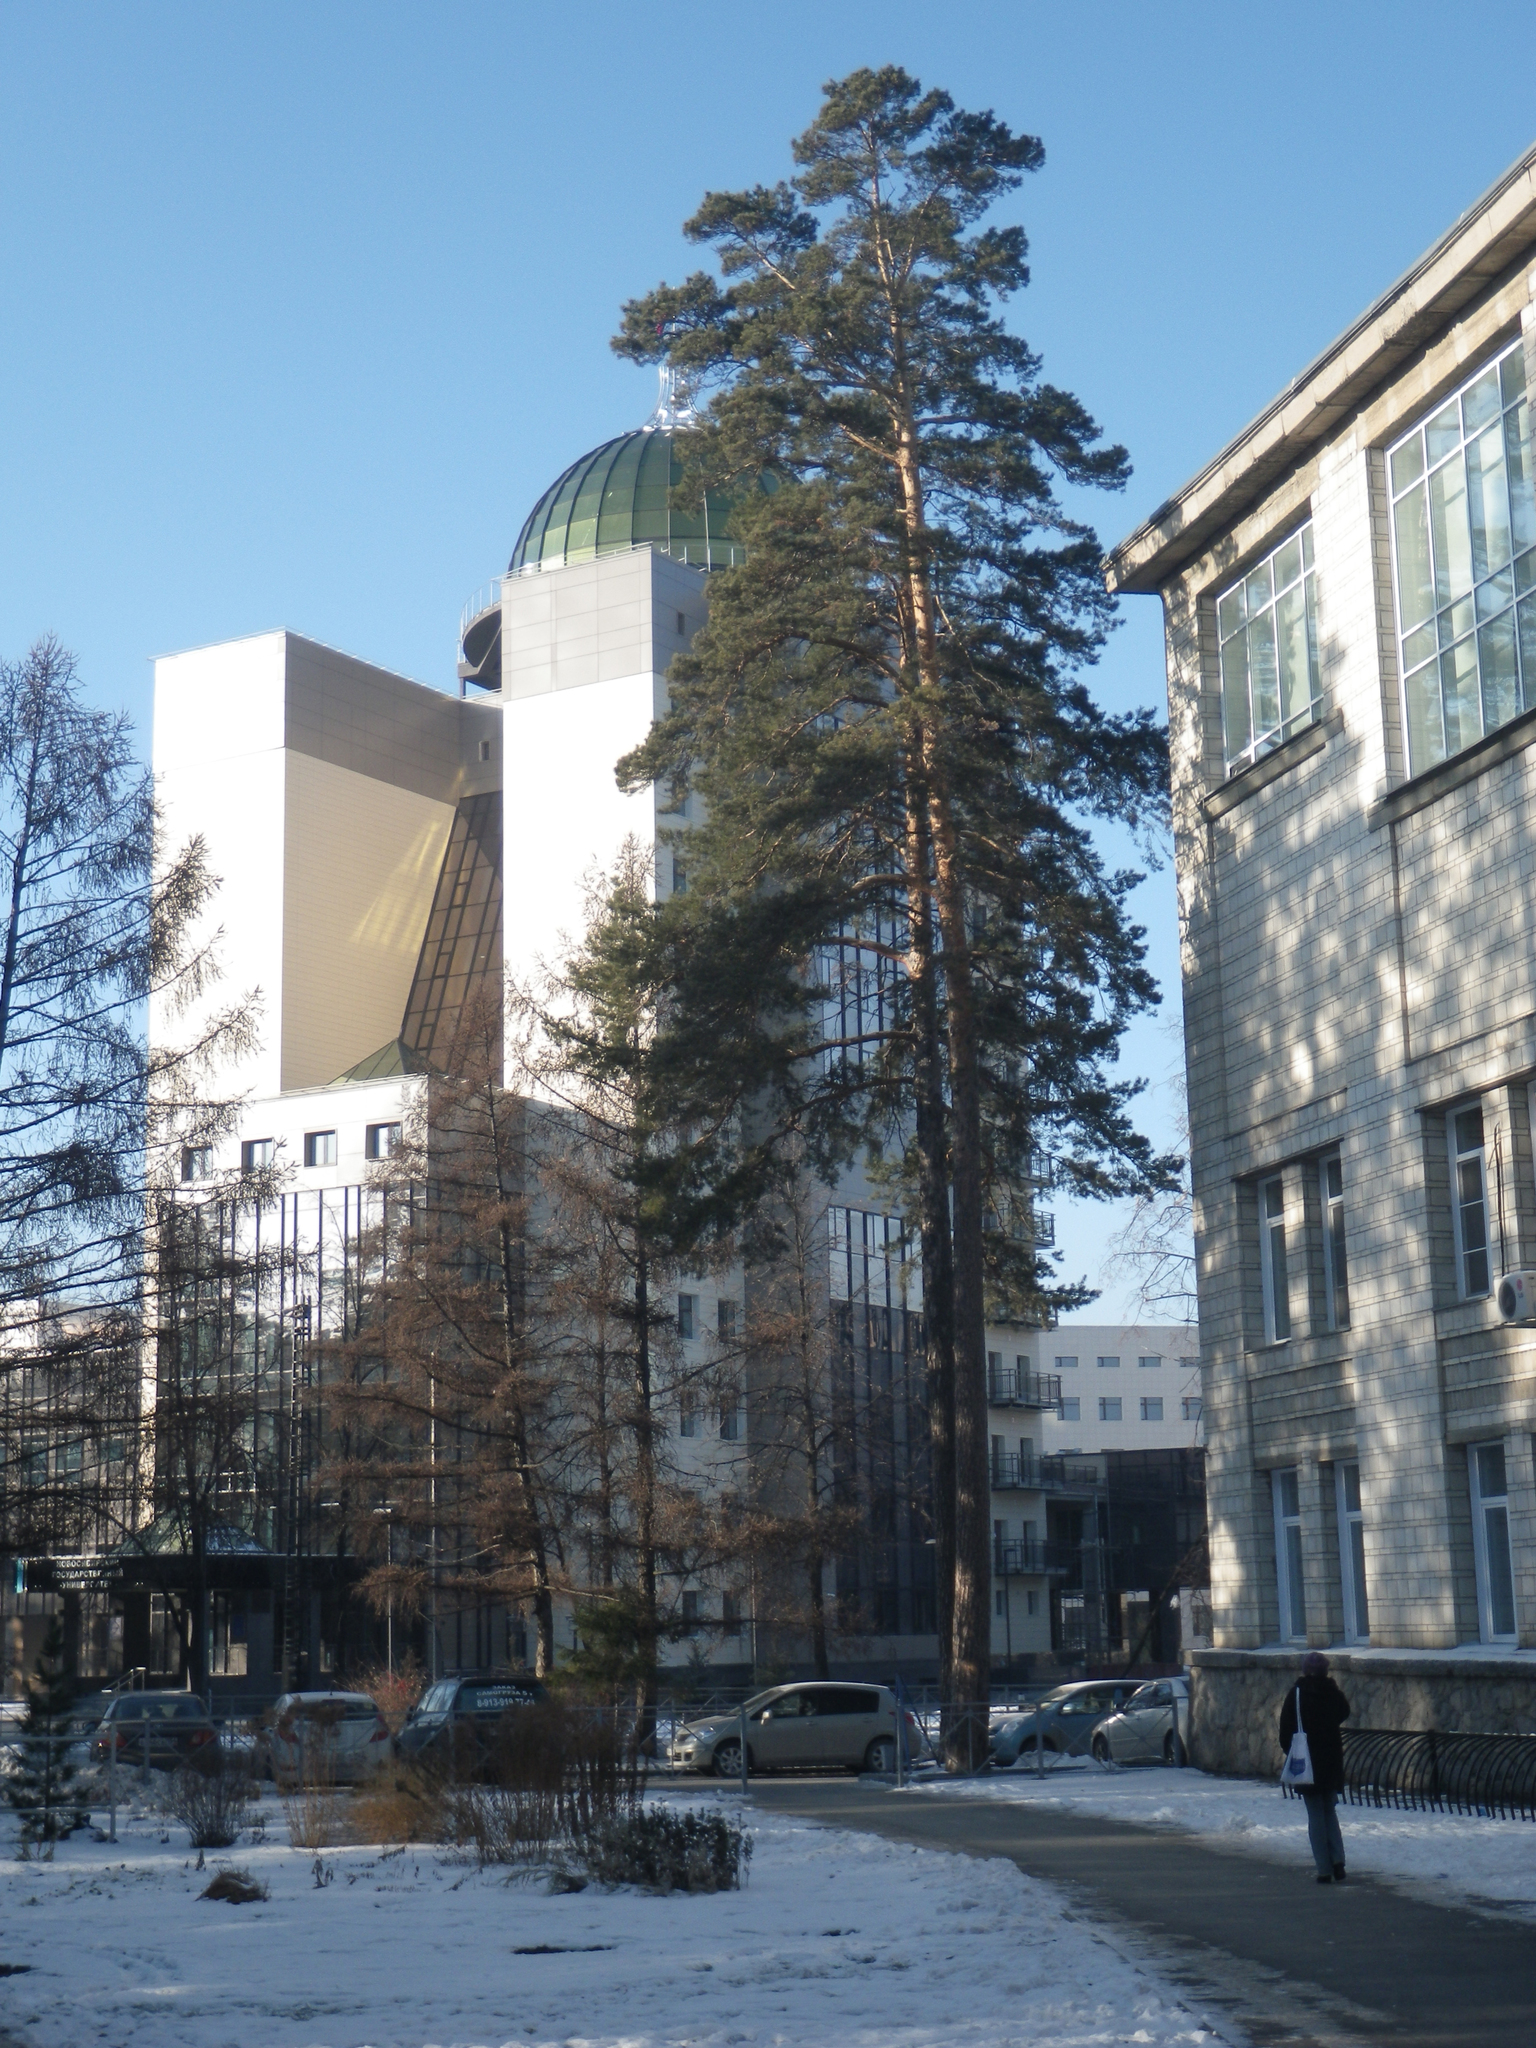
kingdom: Plantae
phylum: Tracheophyta
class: Pinopsida
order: Pinales
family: Pinaceae
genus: Pinus
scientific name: Pinus sylvestris
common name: Scots pine
